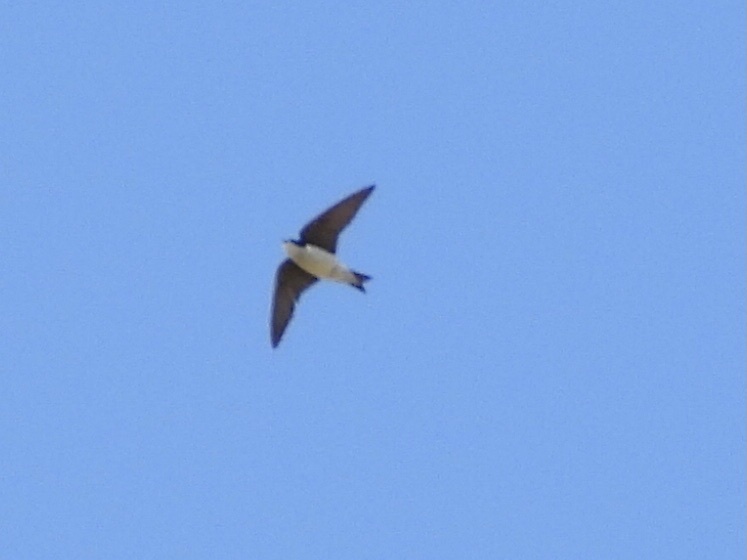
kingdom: Animalia
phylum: Chordata
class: Aves
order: Passeriformes
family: Hirundinidae
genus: Tachycineta
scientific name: Tachycineta bicolor
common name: Tree swallow
